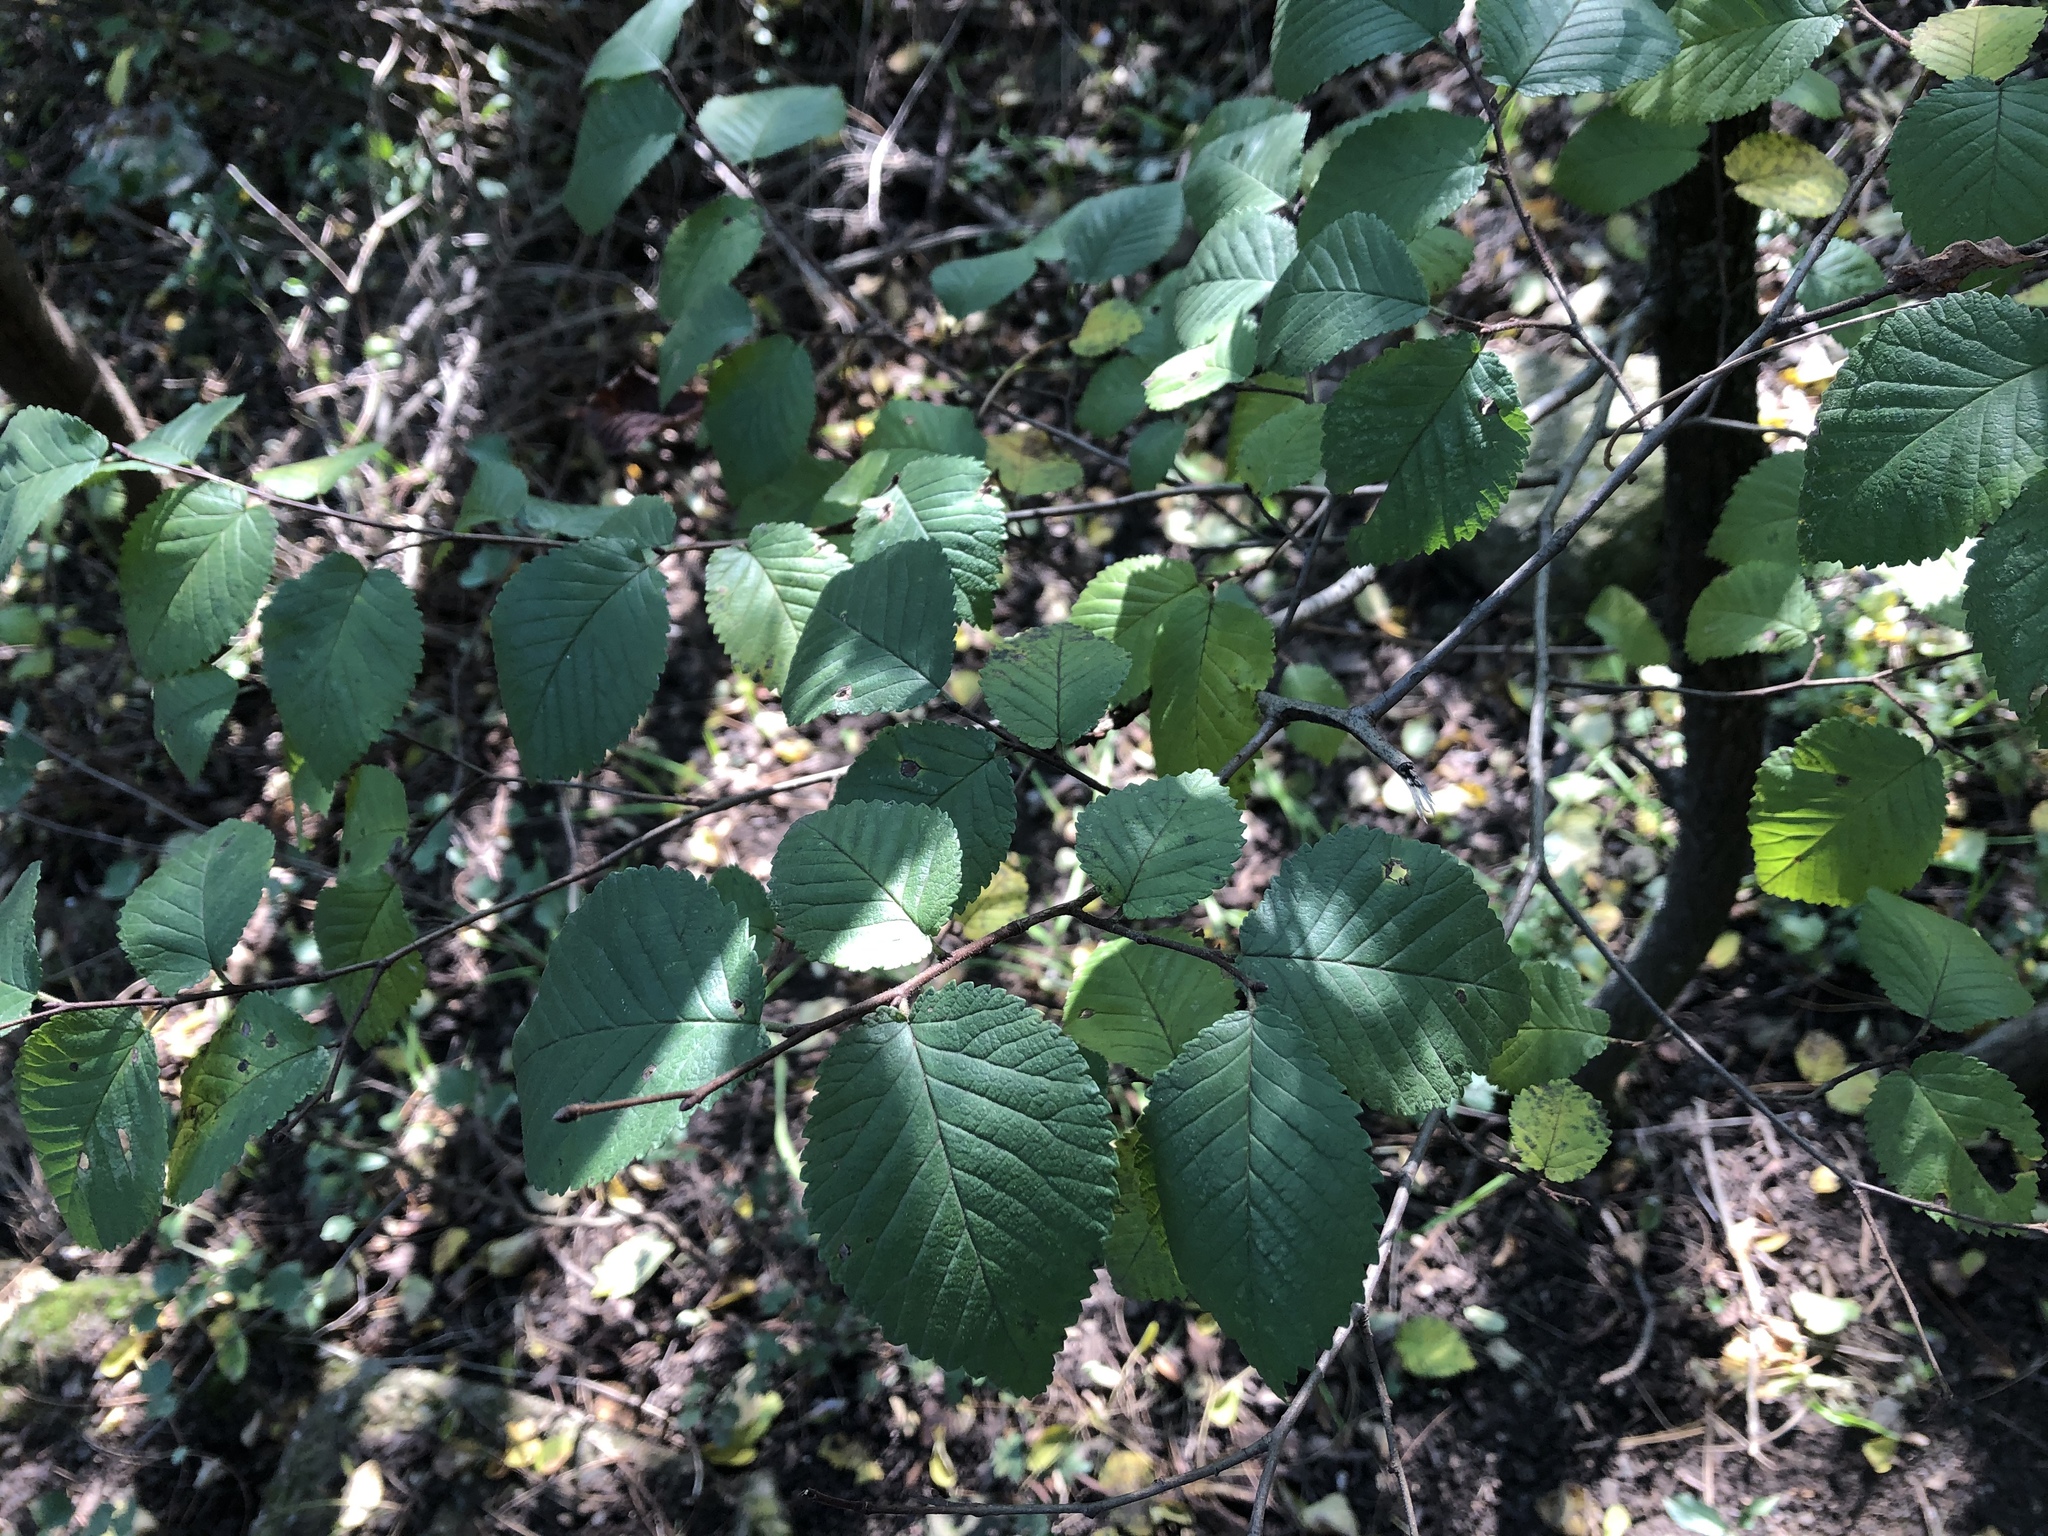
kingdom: Plantae
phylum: Tracheophyta
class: Magnoliopsida
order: Fagales
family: Betulaceae
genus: Carpinus
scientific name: Carpinus betulus
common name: Hornbeam
